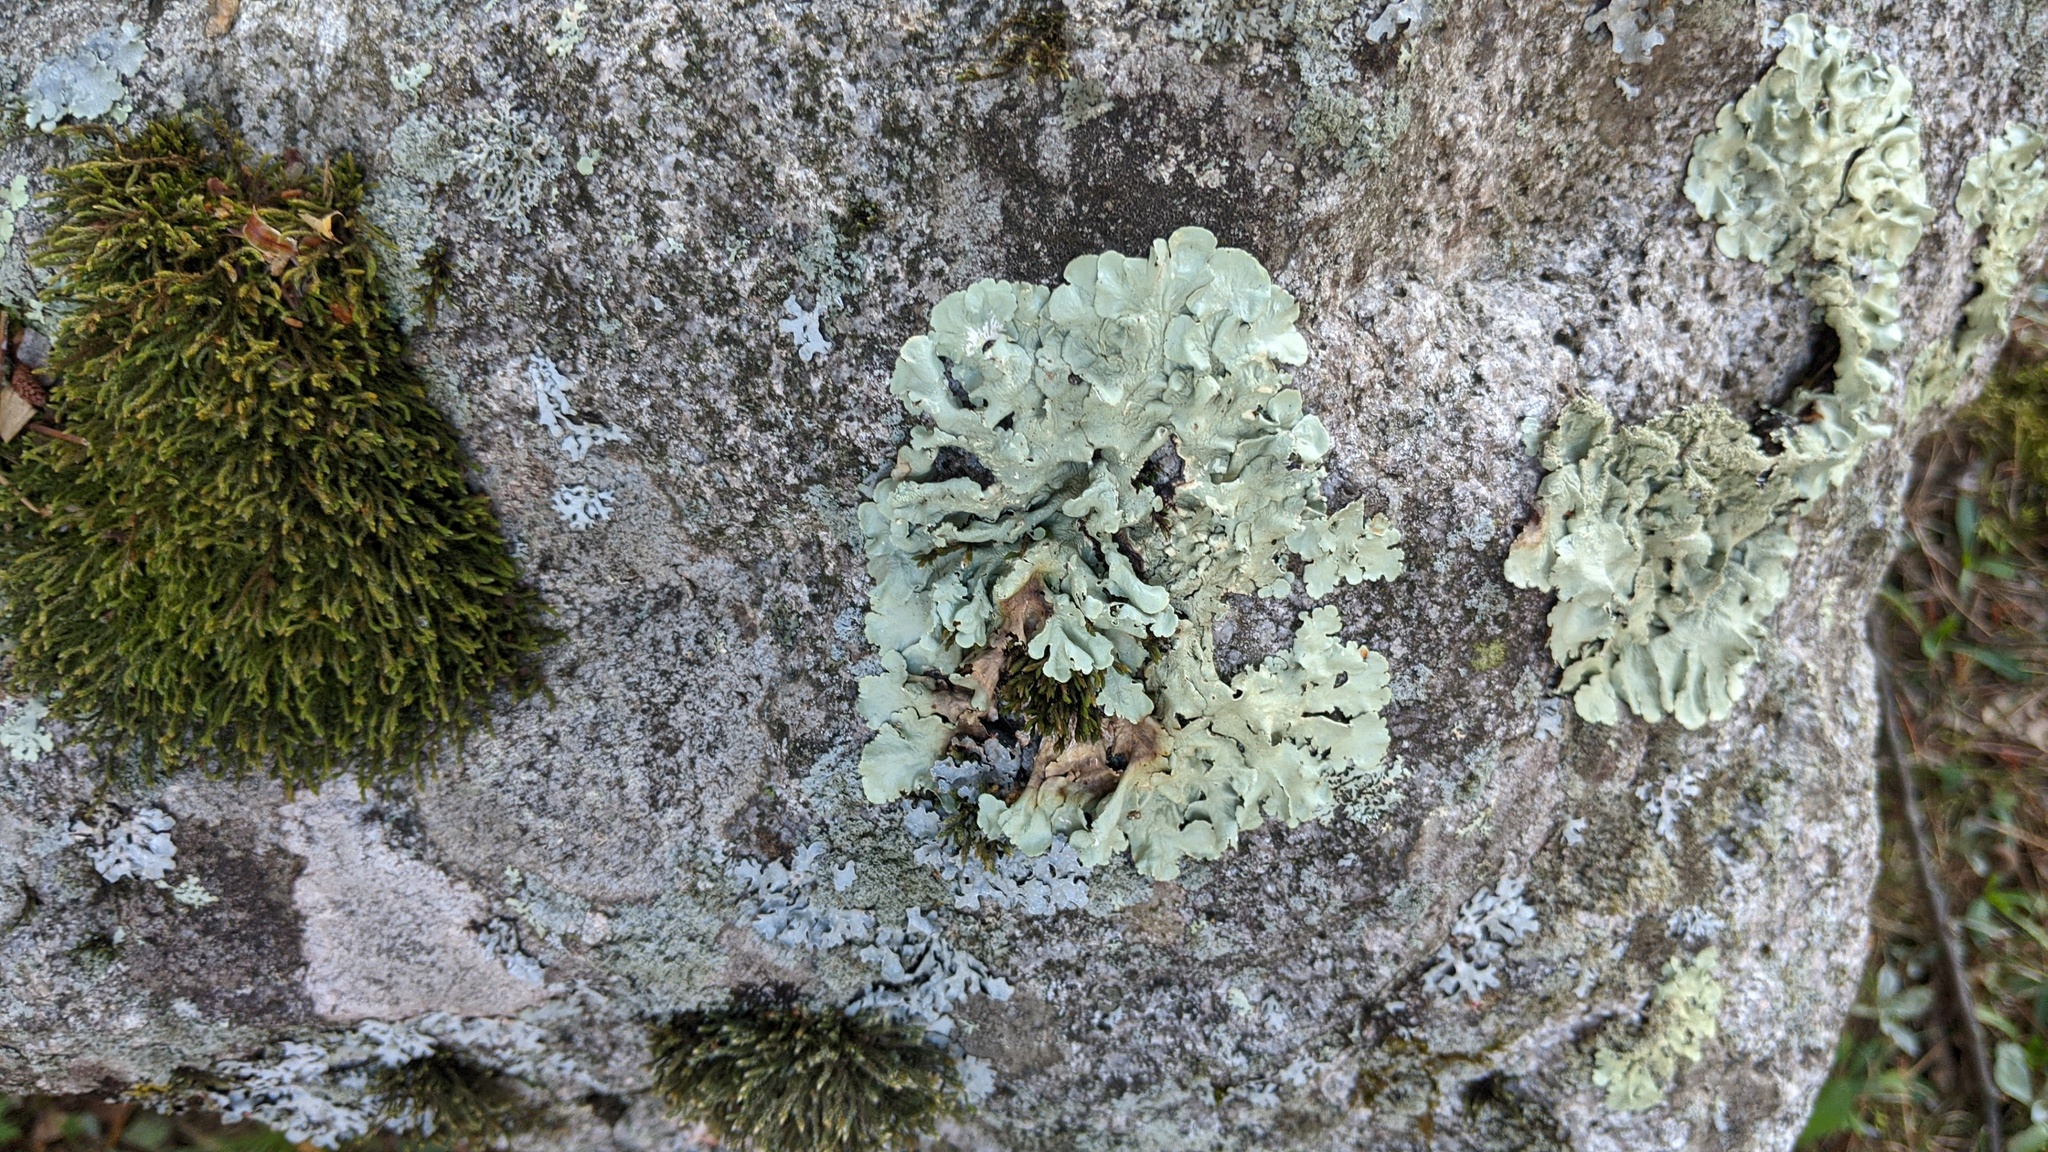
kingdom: Fungi
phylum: Ascomycota
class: Lecanoromycetes
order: Lecanorales
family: Parmeliaceae
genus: Flavoparmelia
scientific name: Flavoparmelia caperata
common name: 40-mile per hour lichen
